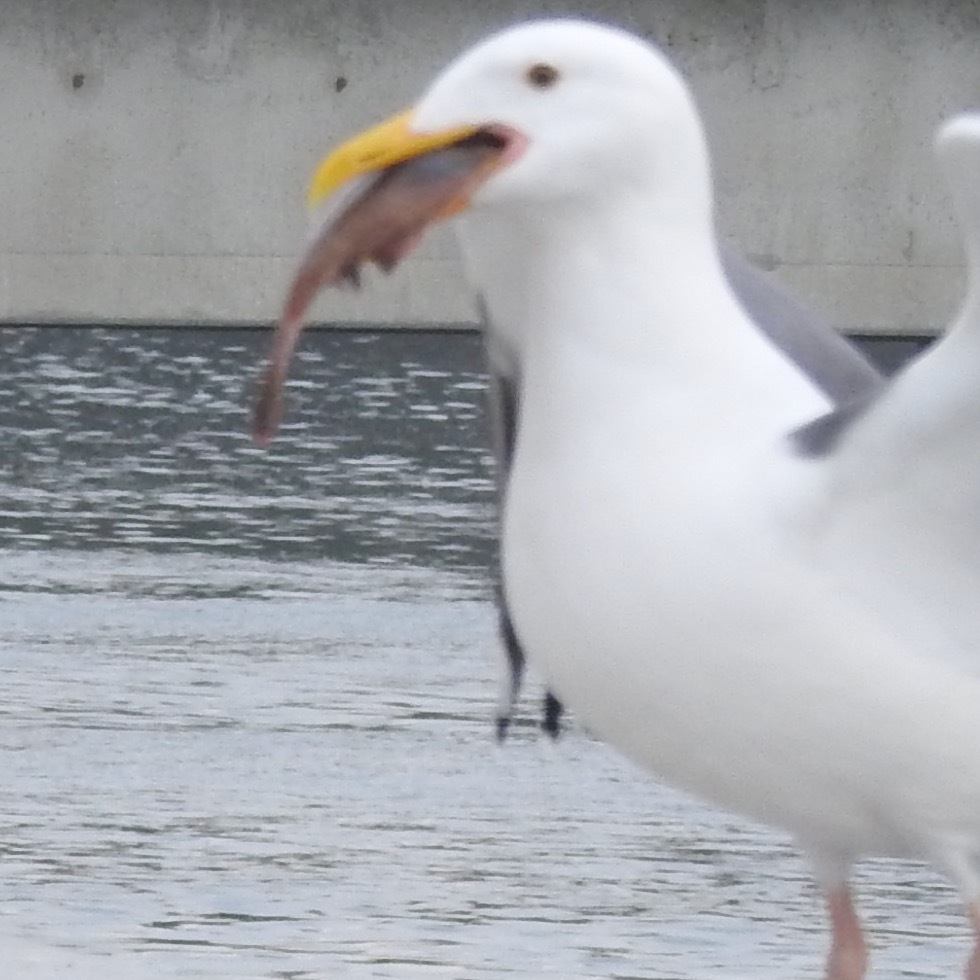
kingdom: Animalia
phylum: Chordata
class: Aves
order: Charadriiformes
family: Laridae
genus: Larus
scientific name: Larus occidentalis
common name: Western gull
